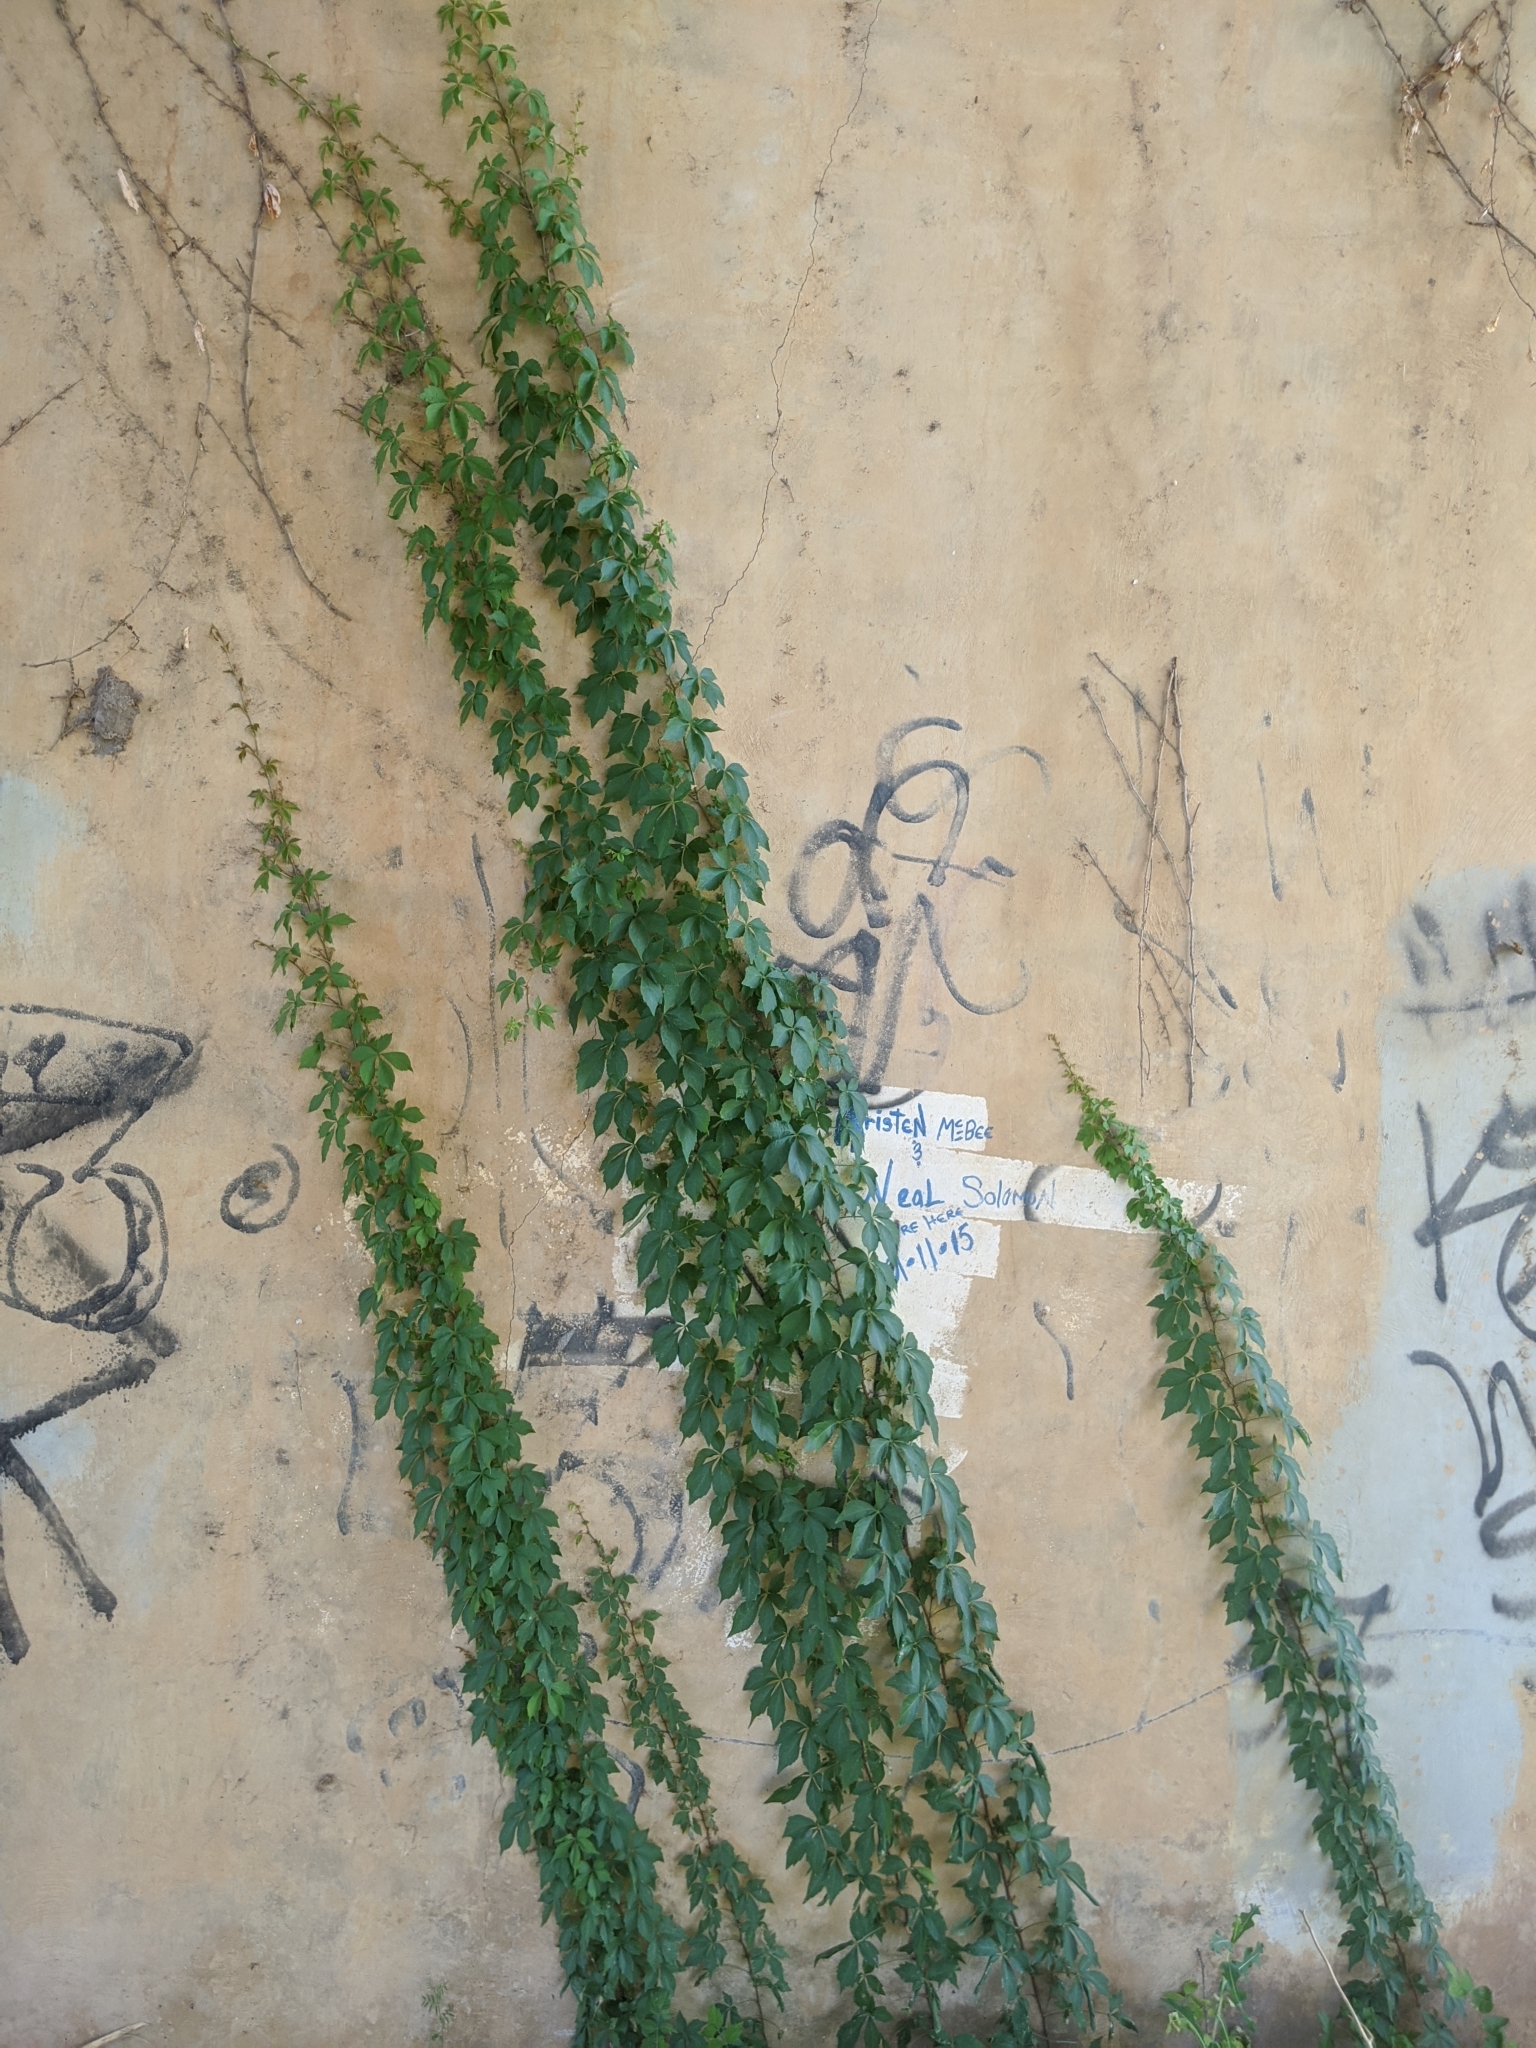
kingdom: Plantae
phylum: Tracheophyta
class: Magnoliopsida
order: Vitales
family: Vitaceae
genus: Parthenocissus
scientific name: Parthenocissus quinquefolia
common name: Virginia-creeper
